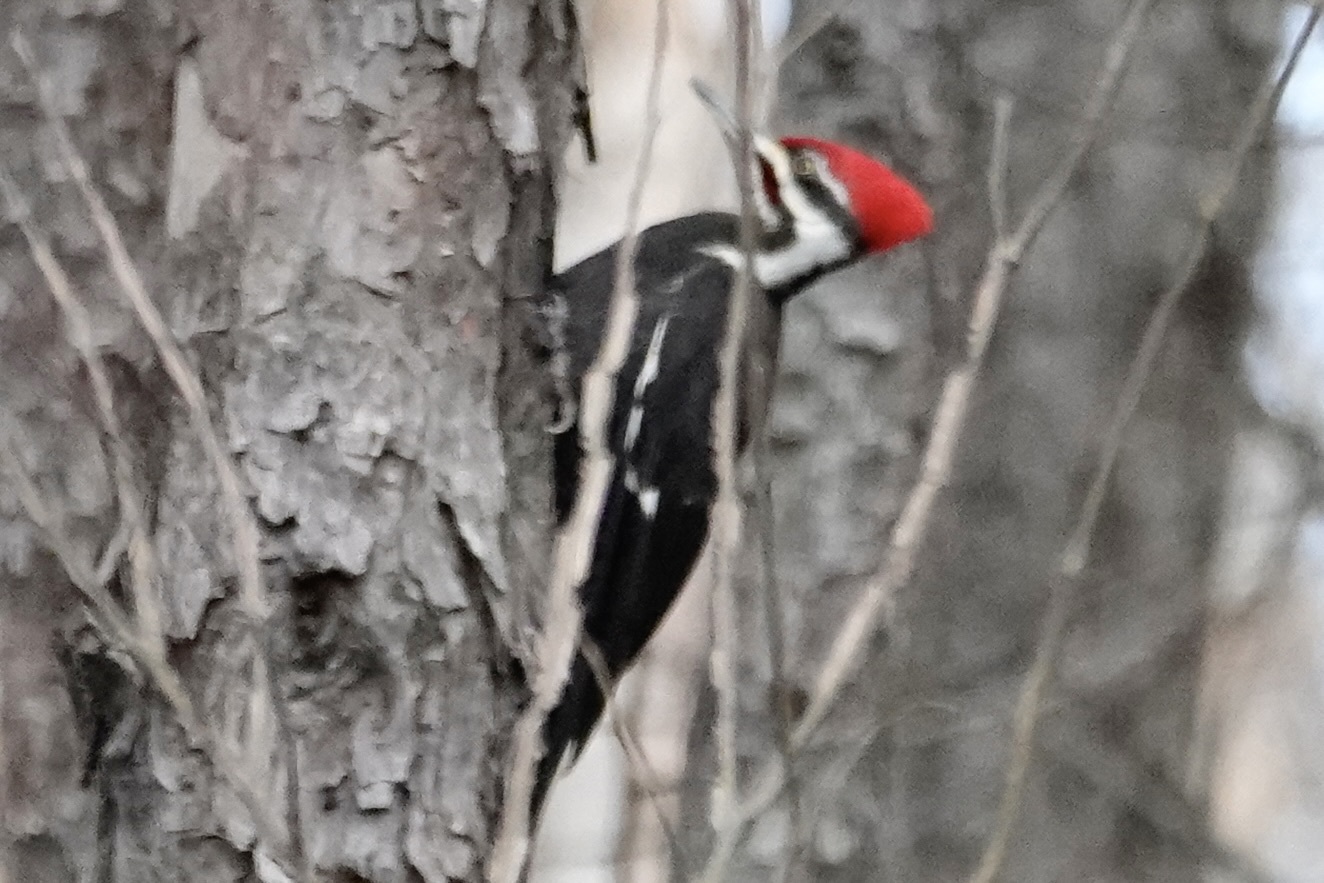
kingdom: Animalia
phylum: Chordata
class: Aves
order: Piciformes
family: Picidae
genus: Dryocopus
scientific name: Dryocopus pileatus
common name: Pileated woodpecker
